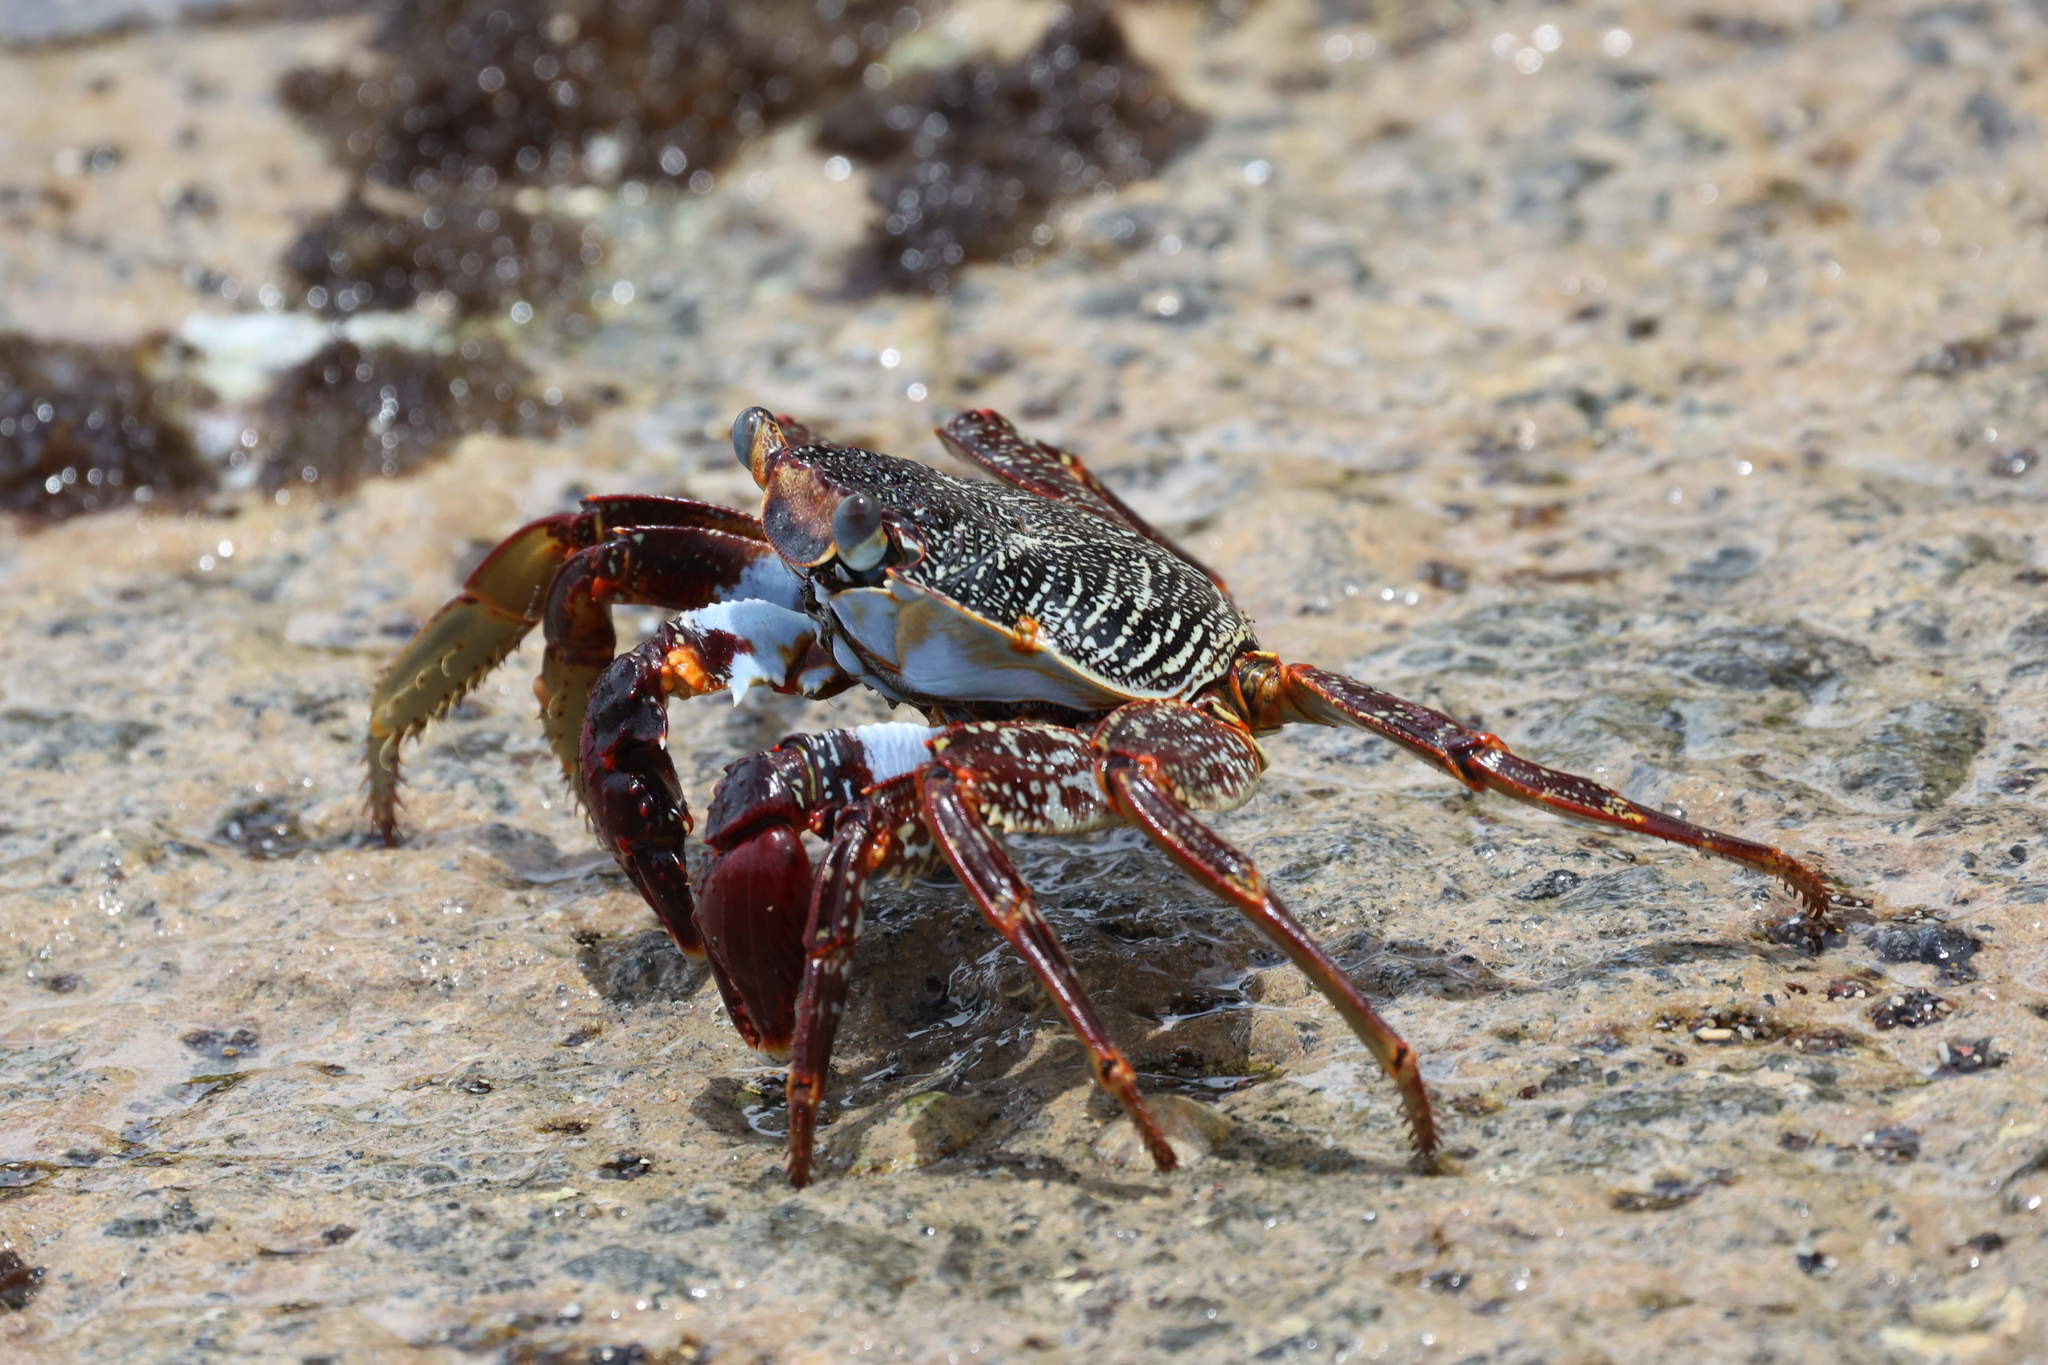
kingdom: Animalia
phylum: Arthropoda
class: Malacostraca
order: Decapoda
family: Grapsidae
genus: Grapsus
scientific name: Grapsus grapsus
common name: Sally lightfoot
